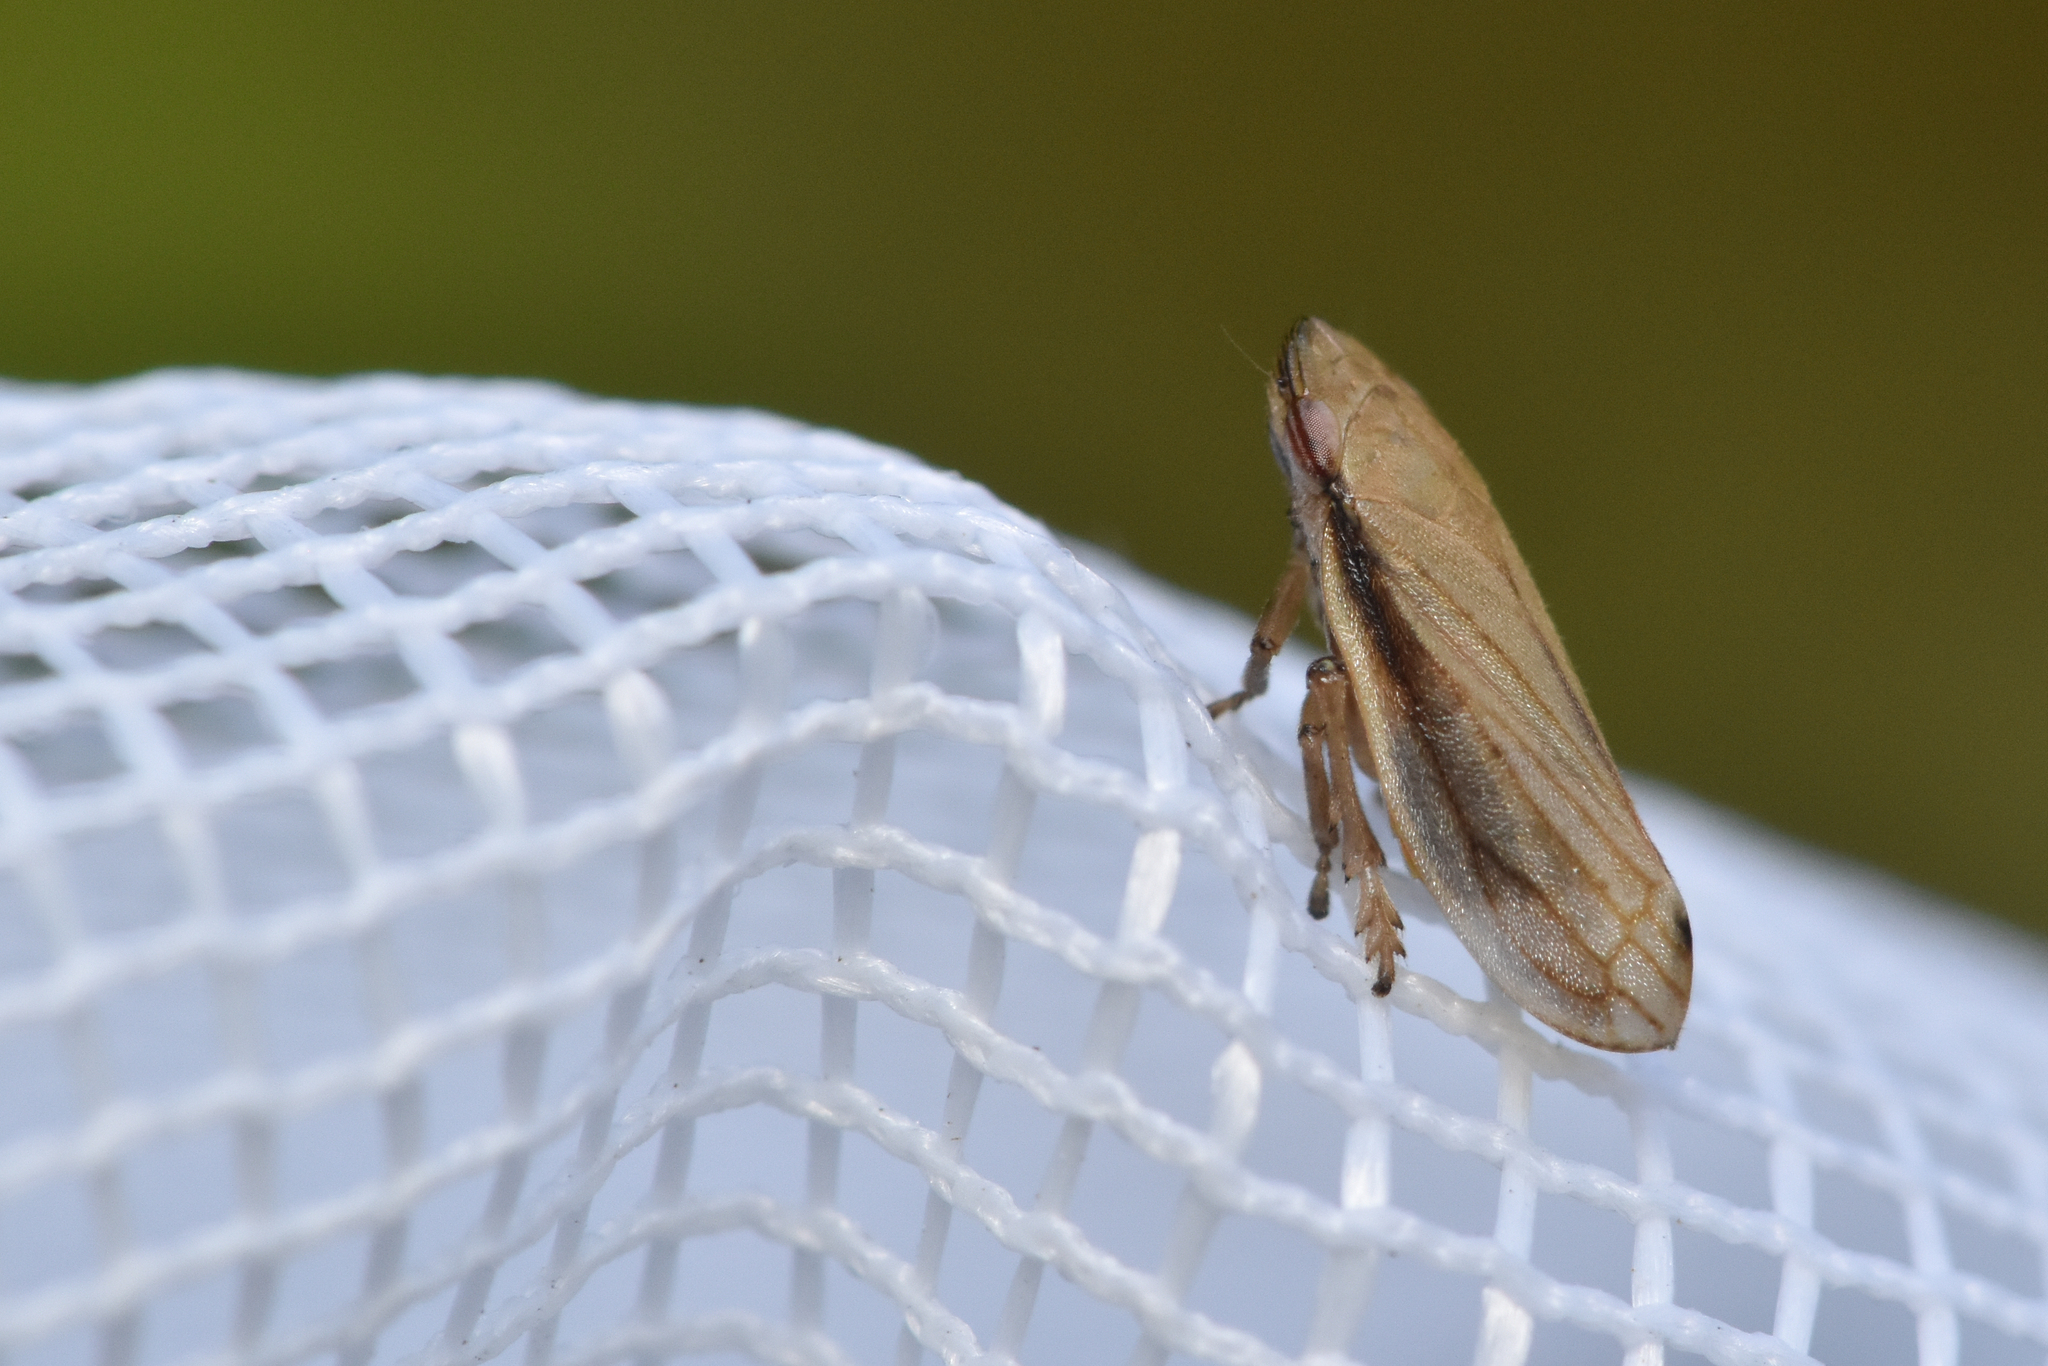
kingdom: Animalia
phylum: Arthropoda
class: Insecta
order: Hemiptera
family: Aphrophoridae
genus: Neophilaenus
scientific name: Neophilaenus lineatus
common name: Spittlebug
